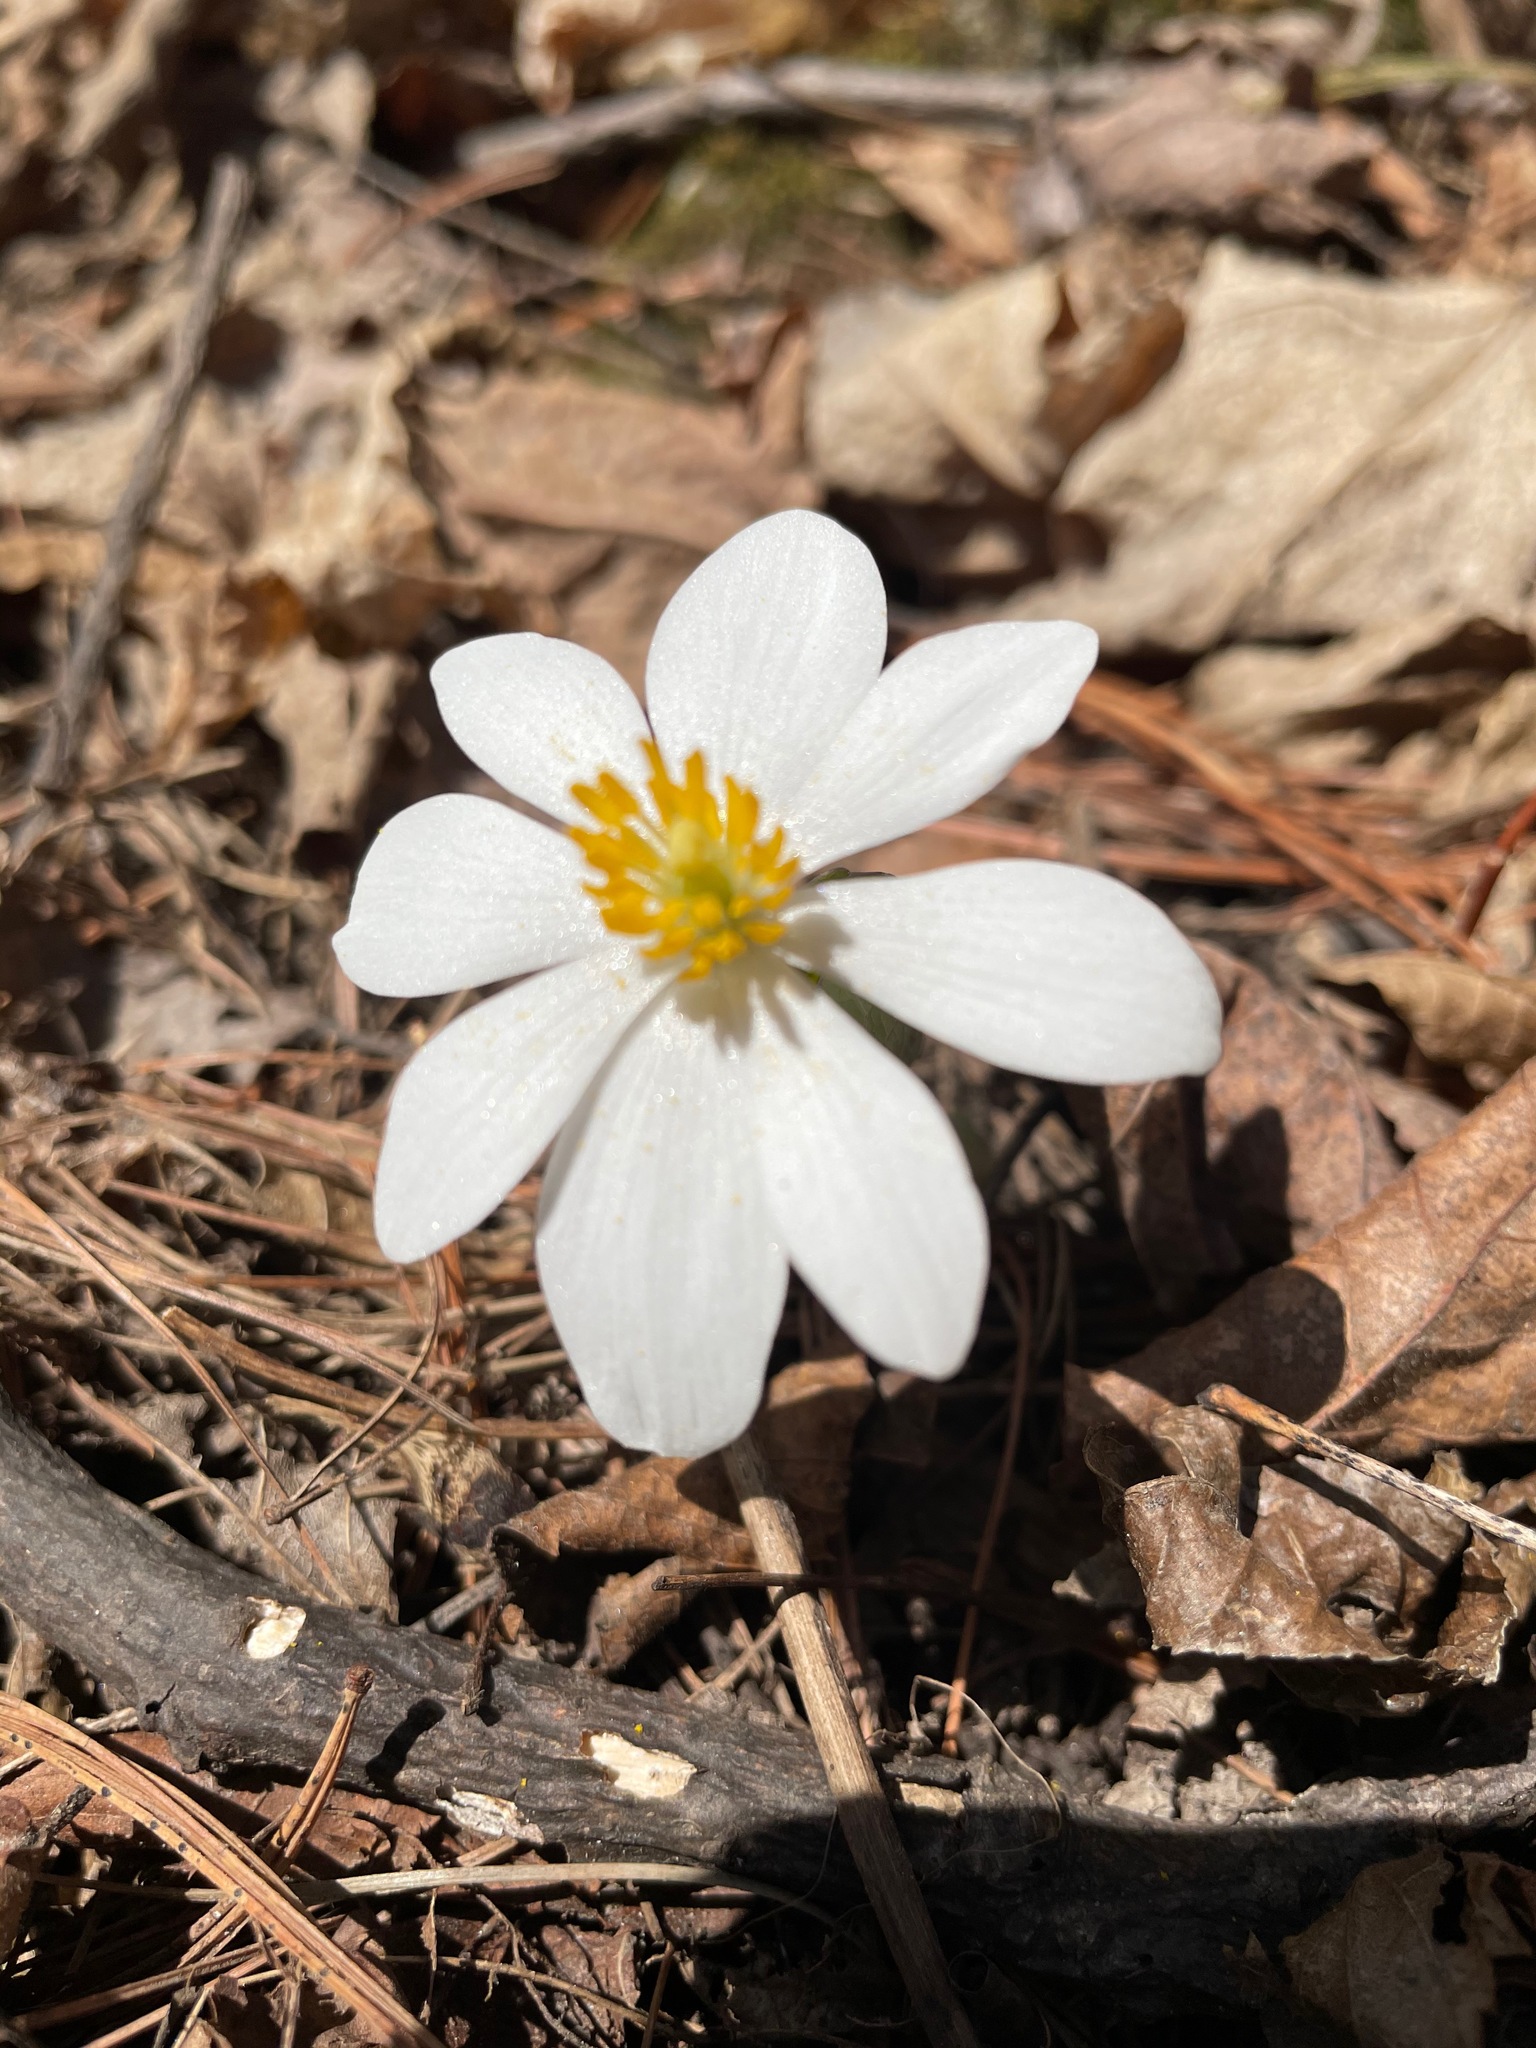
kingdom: Plantae
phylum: Tracheophyta
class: Magnoliopsida
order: Ranunculales
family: Papaveraceae
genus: Sanguinaria
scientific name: Sanguinaria canadensis
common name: Bloodroot
